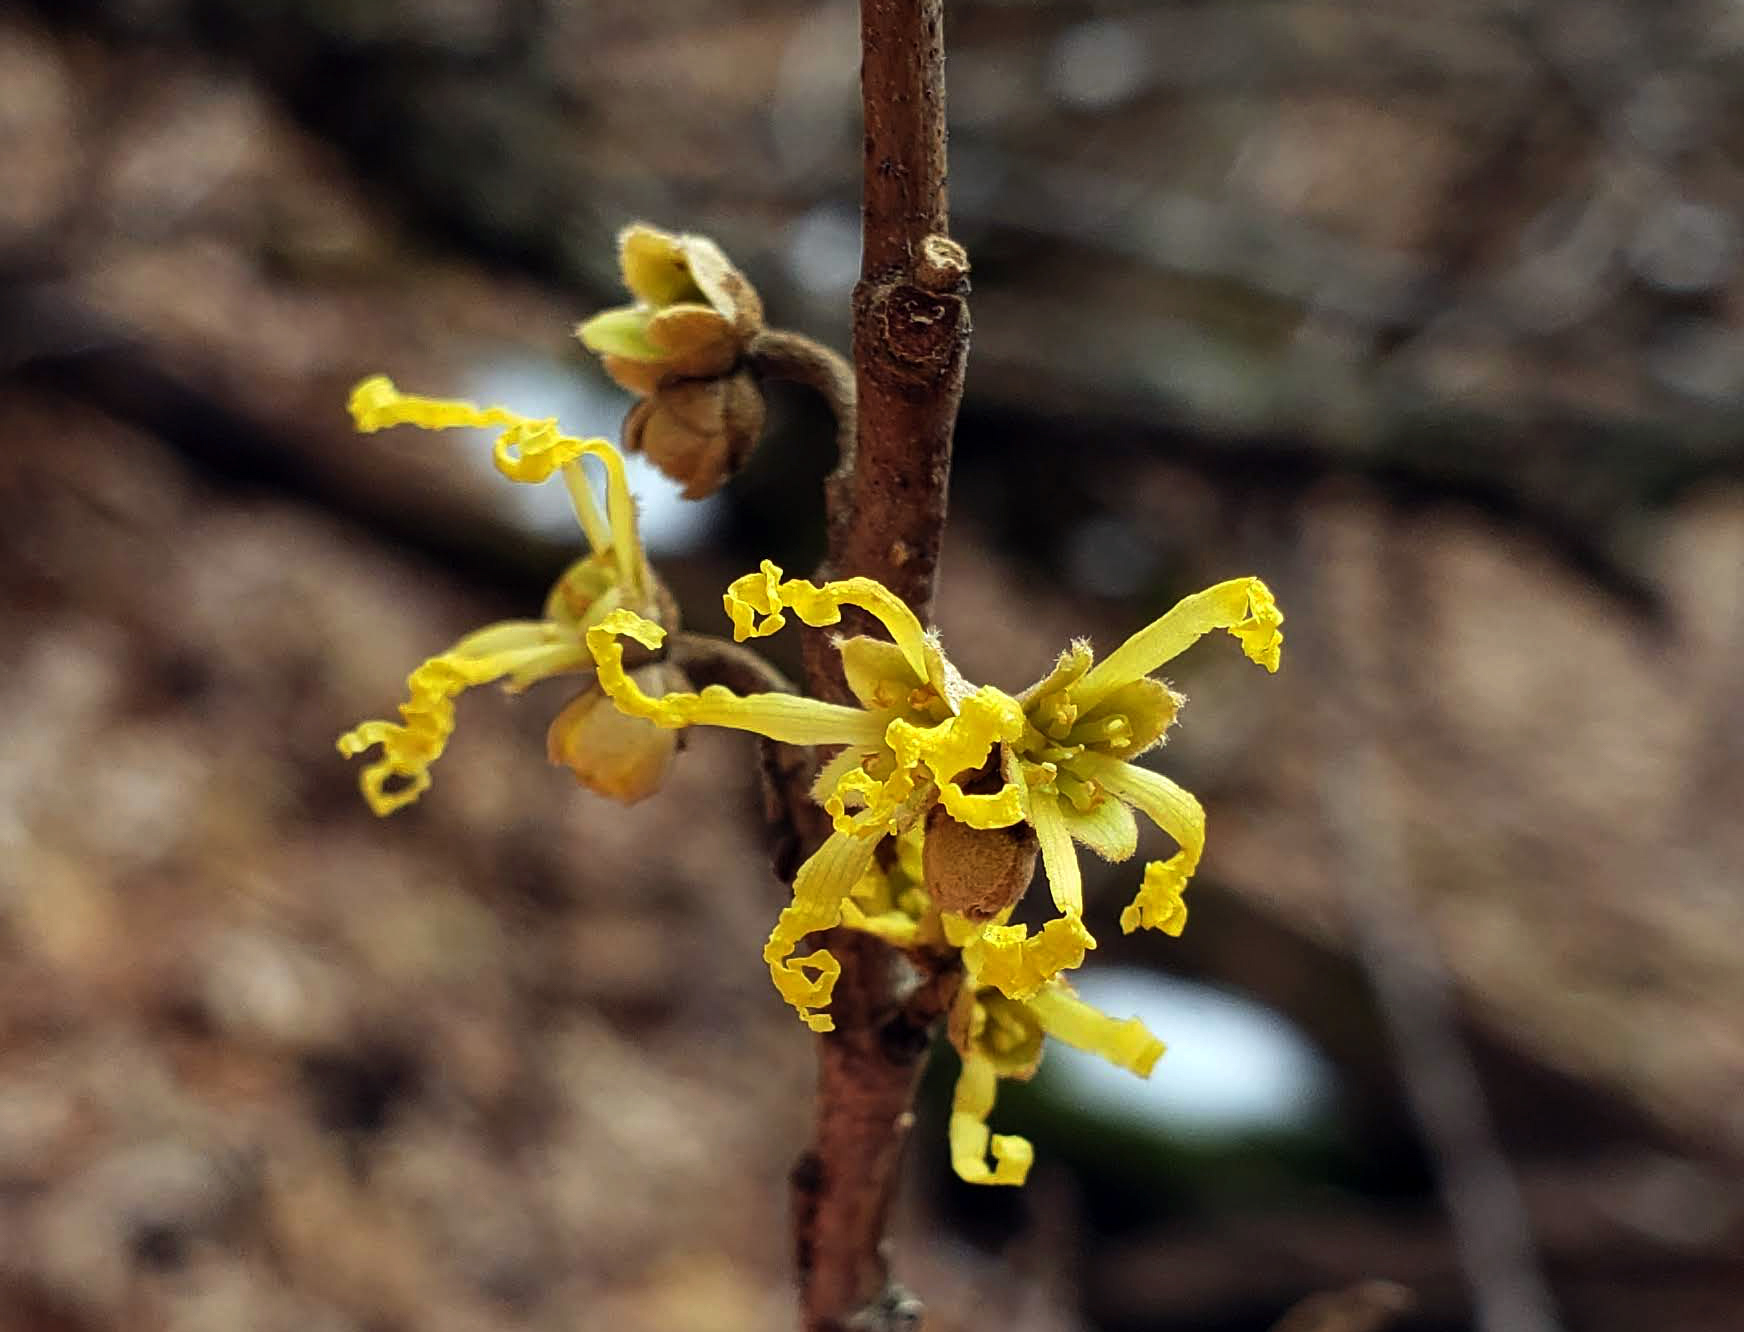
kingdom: Plantae
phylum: Tracheophyta
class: Magnoliopsida
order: Saxifragales
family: Hamamelidaceae
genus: Hamamelis
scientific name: Hamamelis virginiana
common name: Witch-hazel
